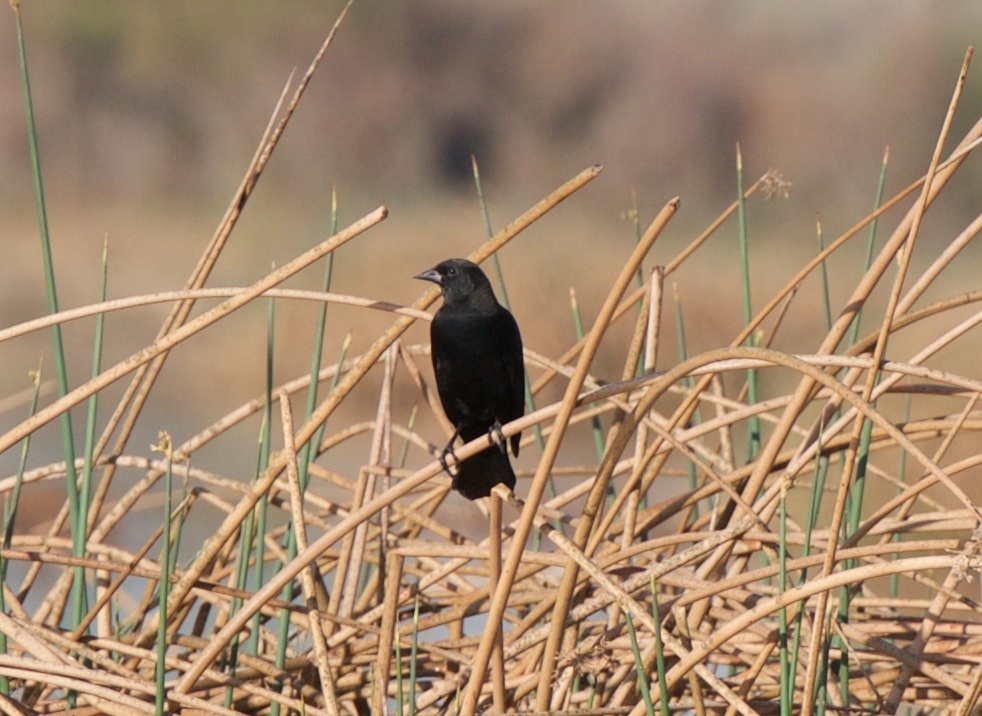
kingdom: Animalia
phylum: Chordata
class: Aves
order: Passeriformes
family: Icteridae
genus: Agelaius
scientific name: Agelaius phoeniceus
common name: Red-winged blackbird
